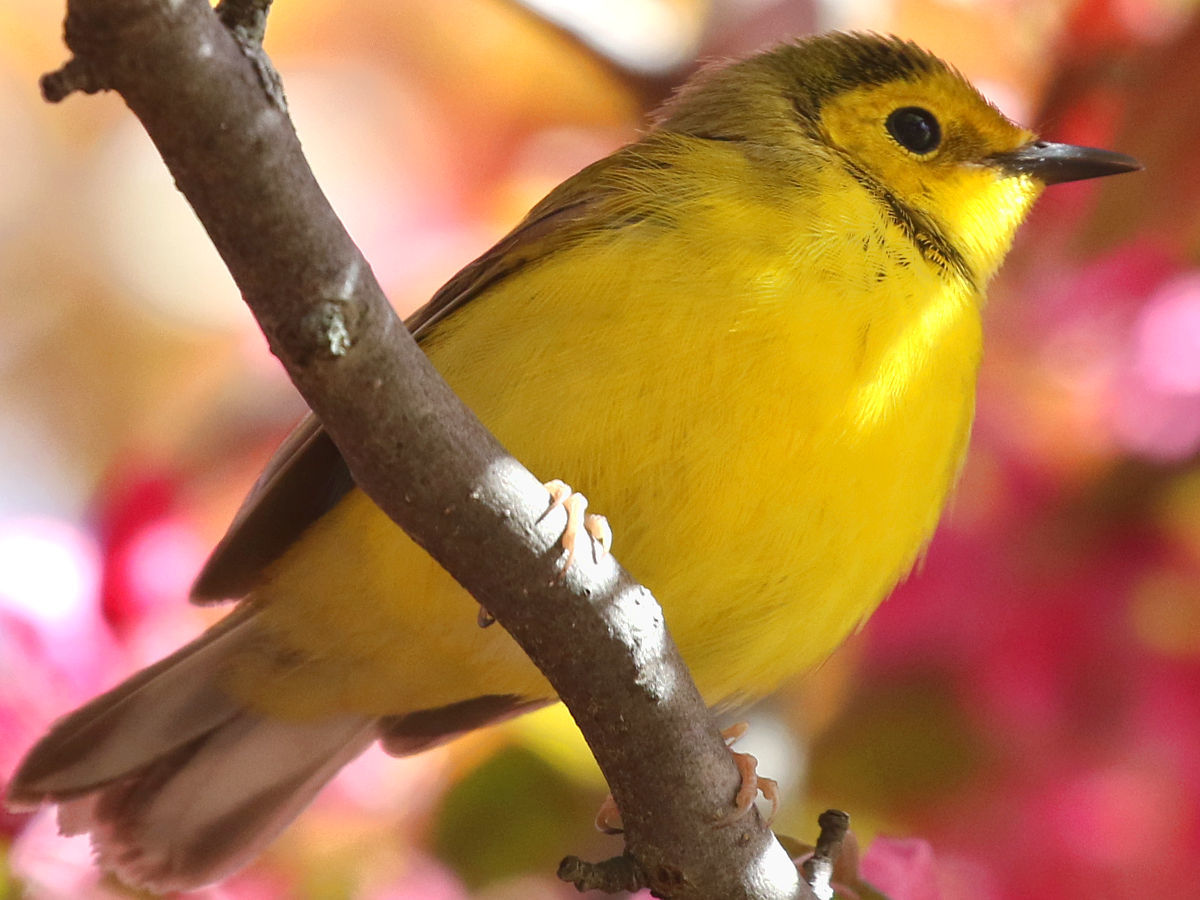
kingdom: Animalia
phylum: Chordata
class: Aves
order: Passeriformes
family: Parulidae
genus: Setophaga
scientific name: Setophaga citrina
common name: Hooded warbler
